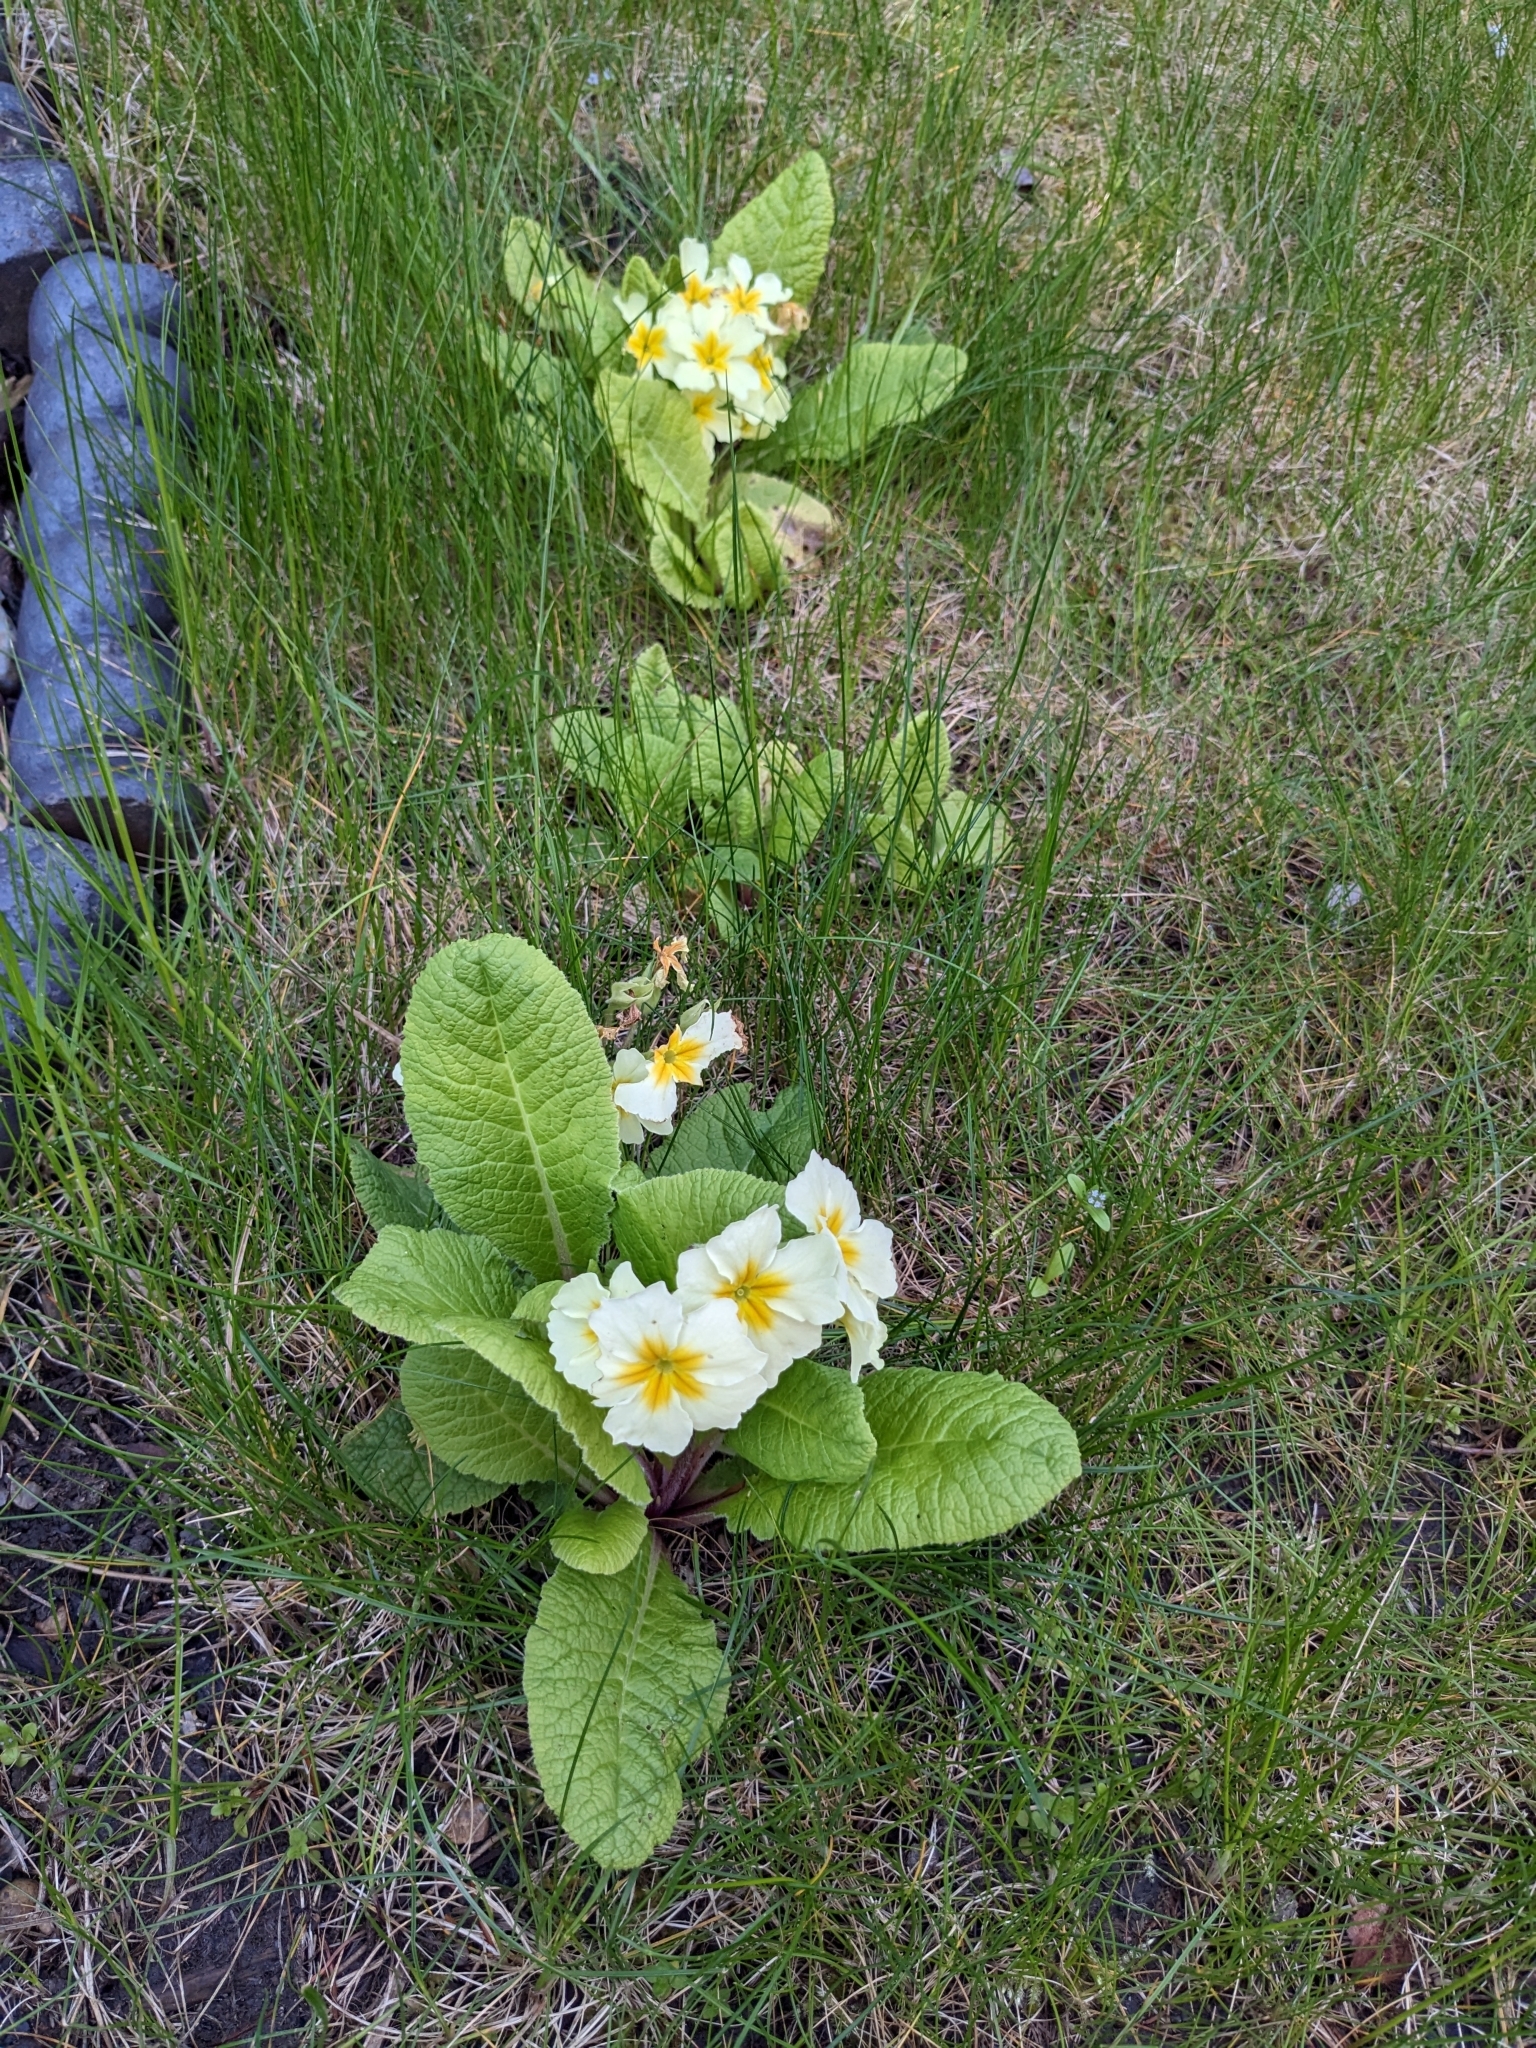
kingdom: Plantae
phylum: Tracheophyta
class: Magnoliopsida
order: Ericales
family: Primulaceae
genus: Primula
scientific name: Primula vulgaris
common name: Primrose
